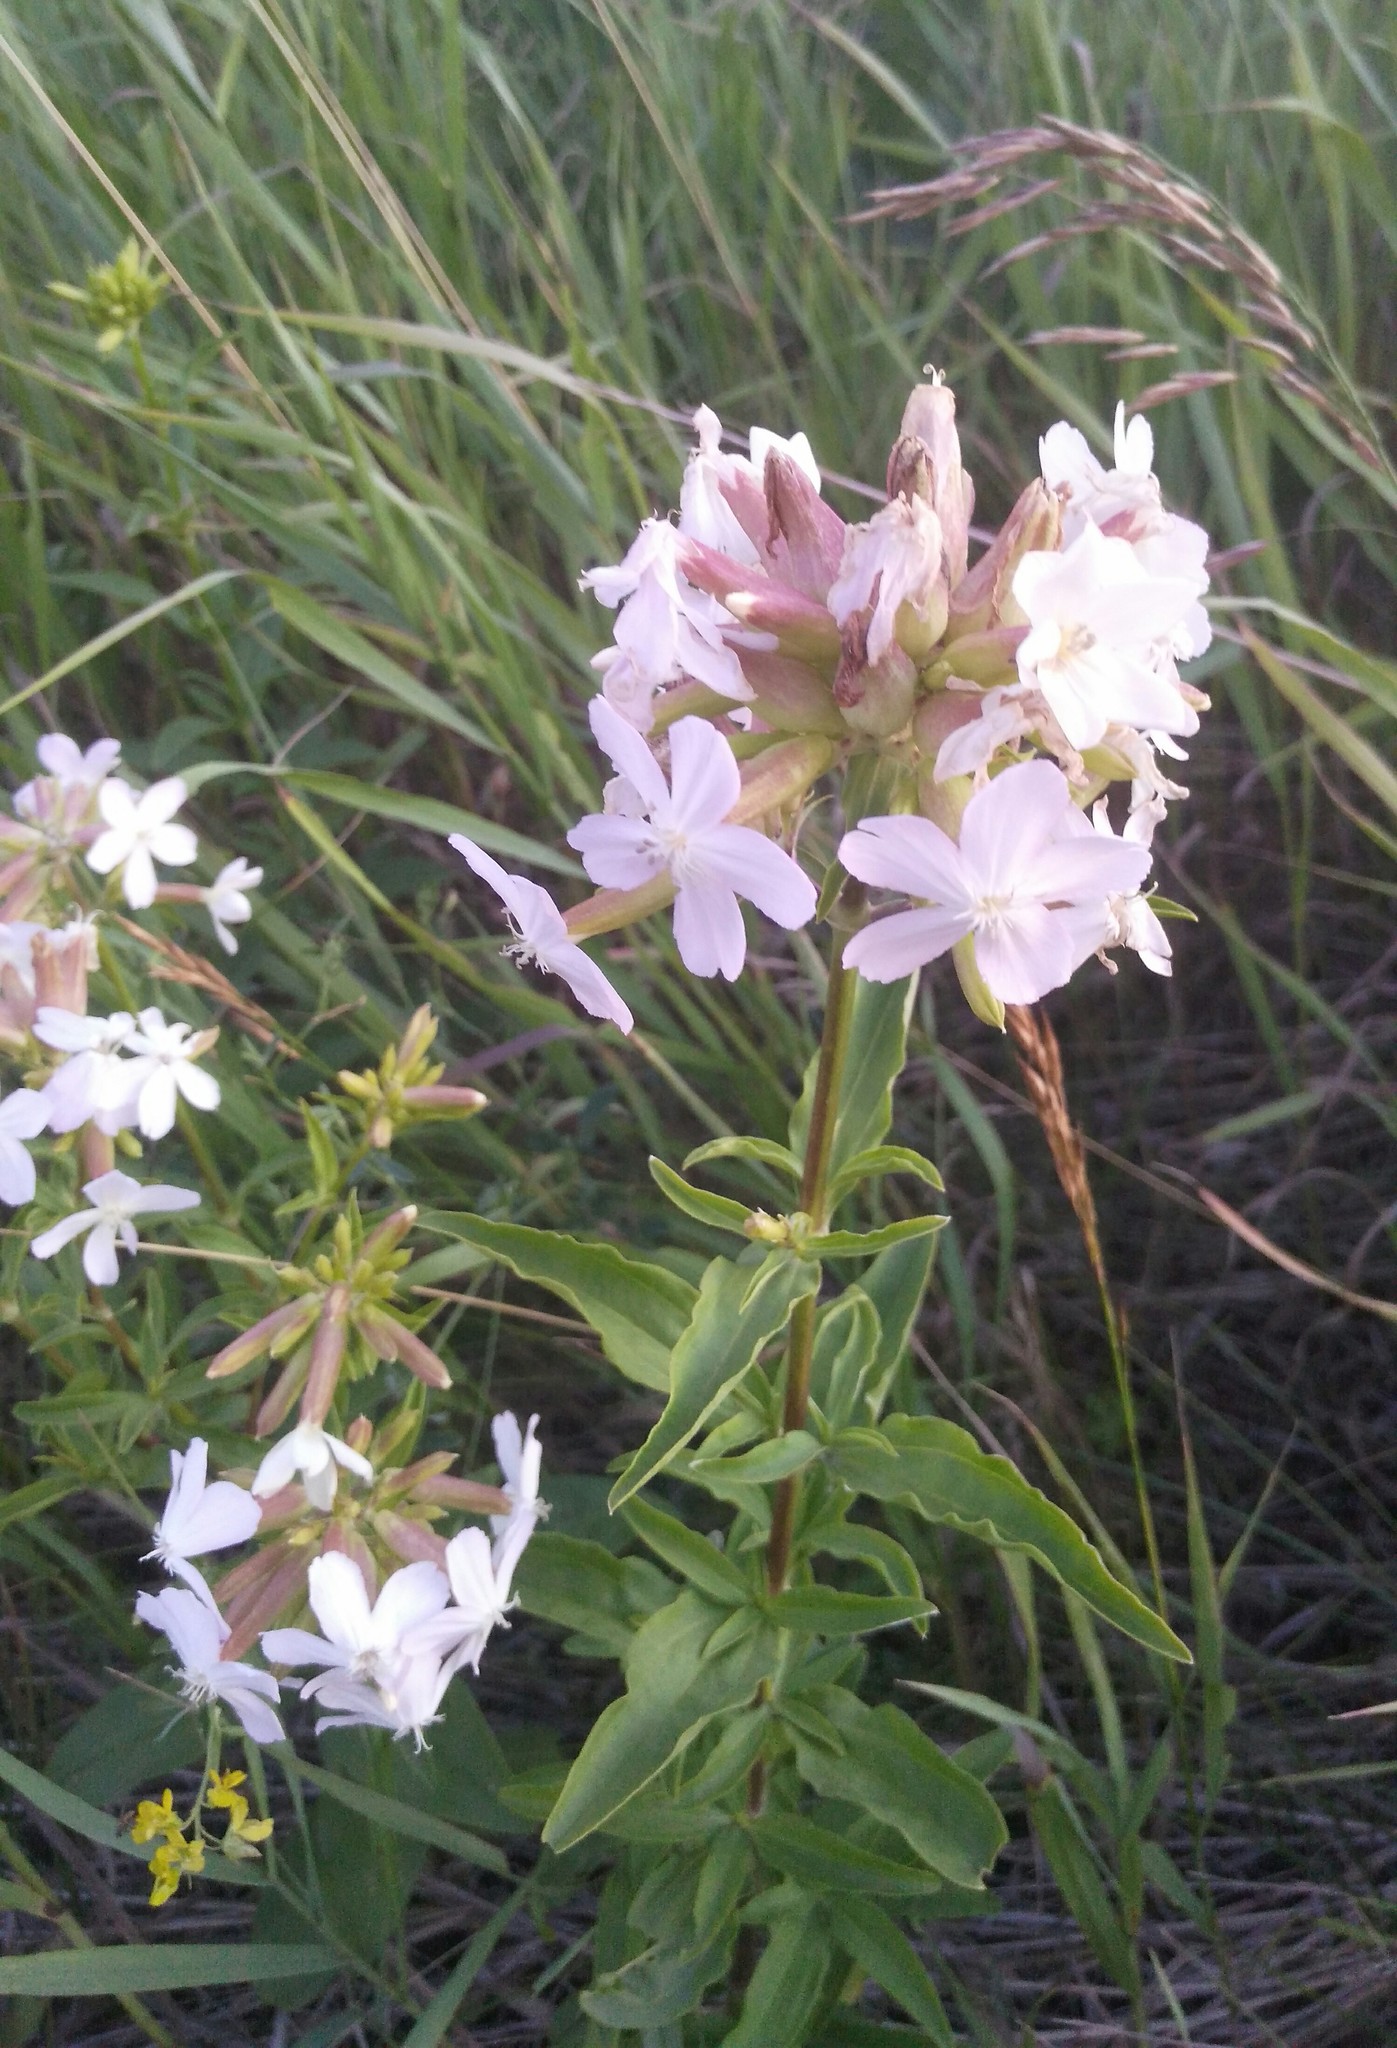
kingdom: Plantae
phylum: Tracheophyta
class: Magnoliopsida
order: Caryophyllales
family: Caryophyllaceae
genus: Saponaria
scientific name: Saponaria officinalis
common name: Soapwort
